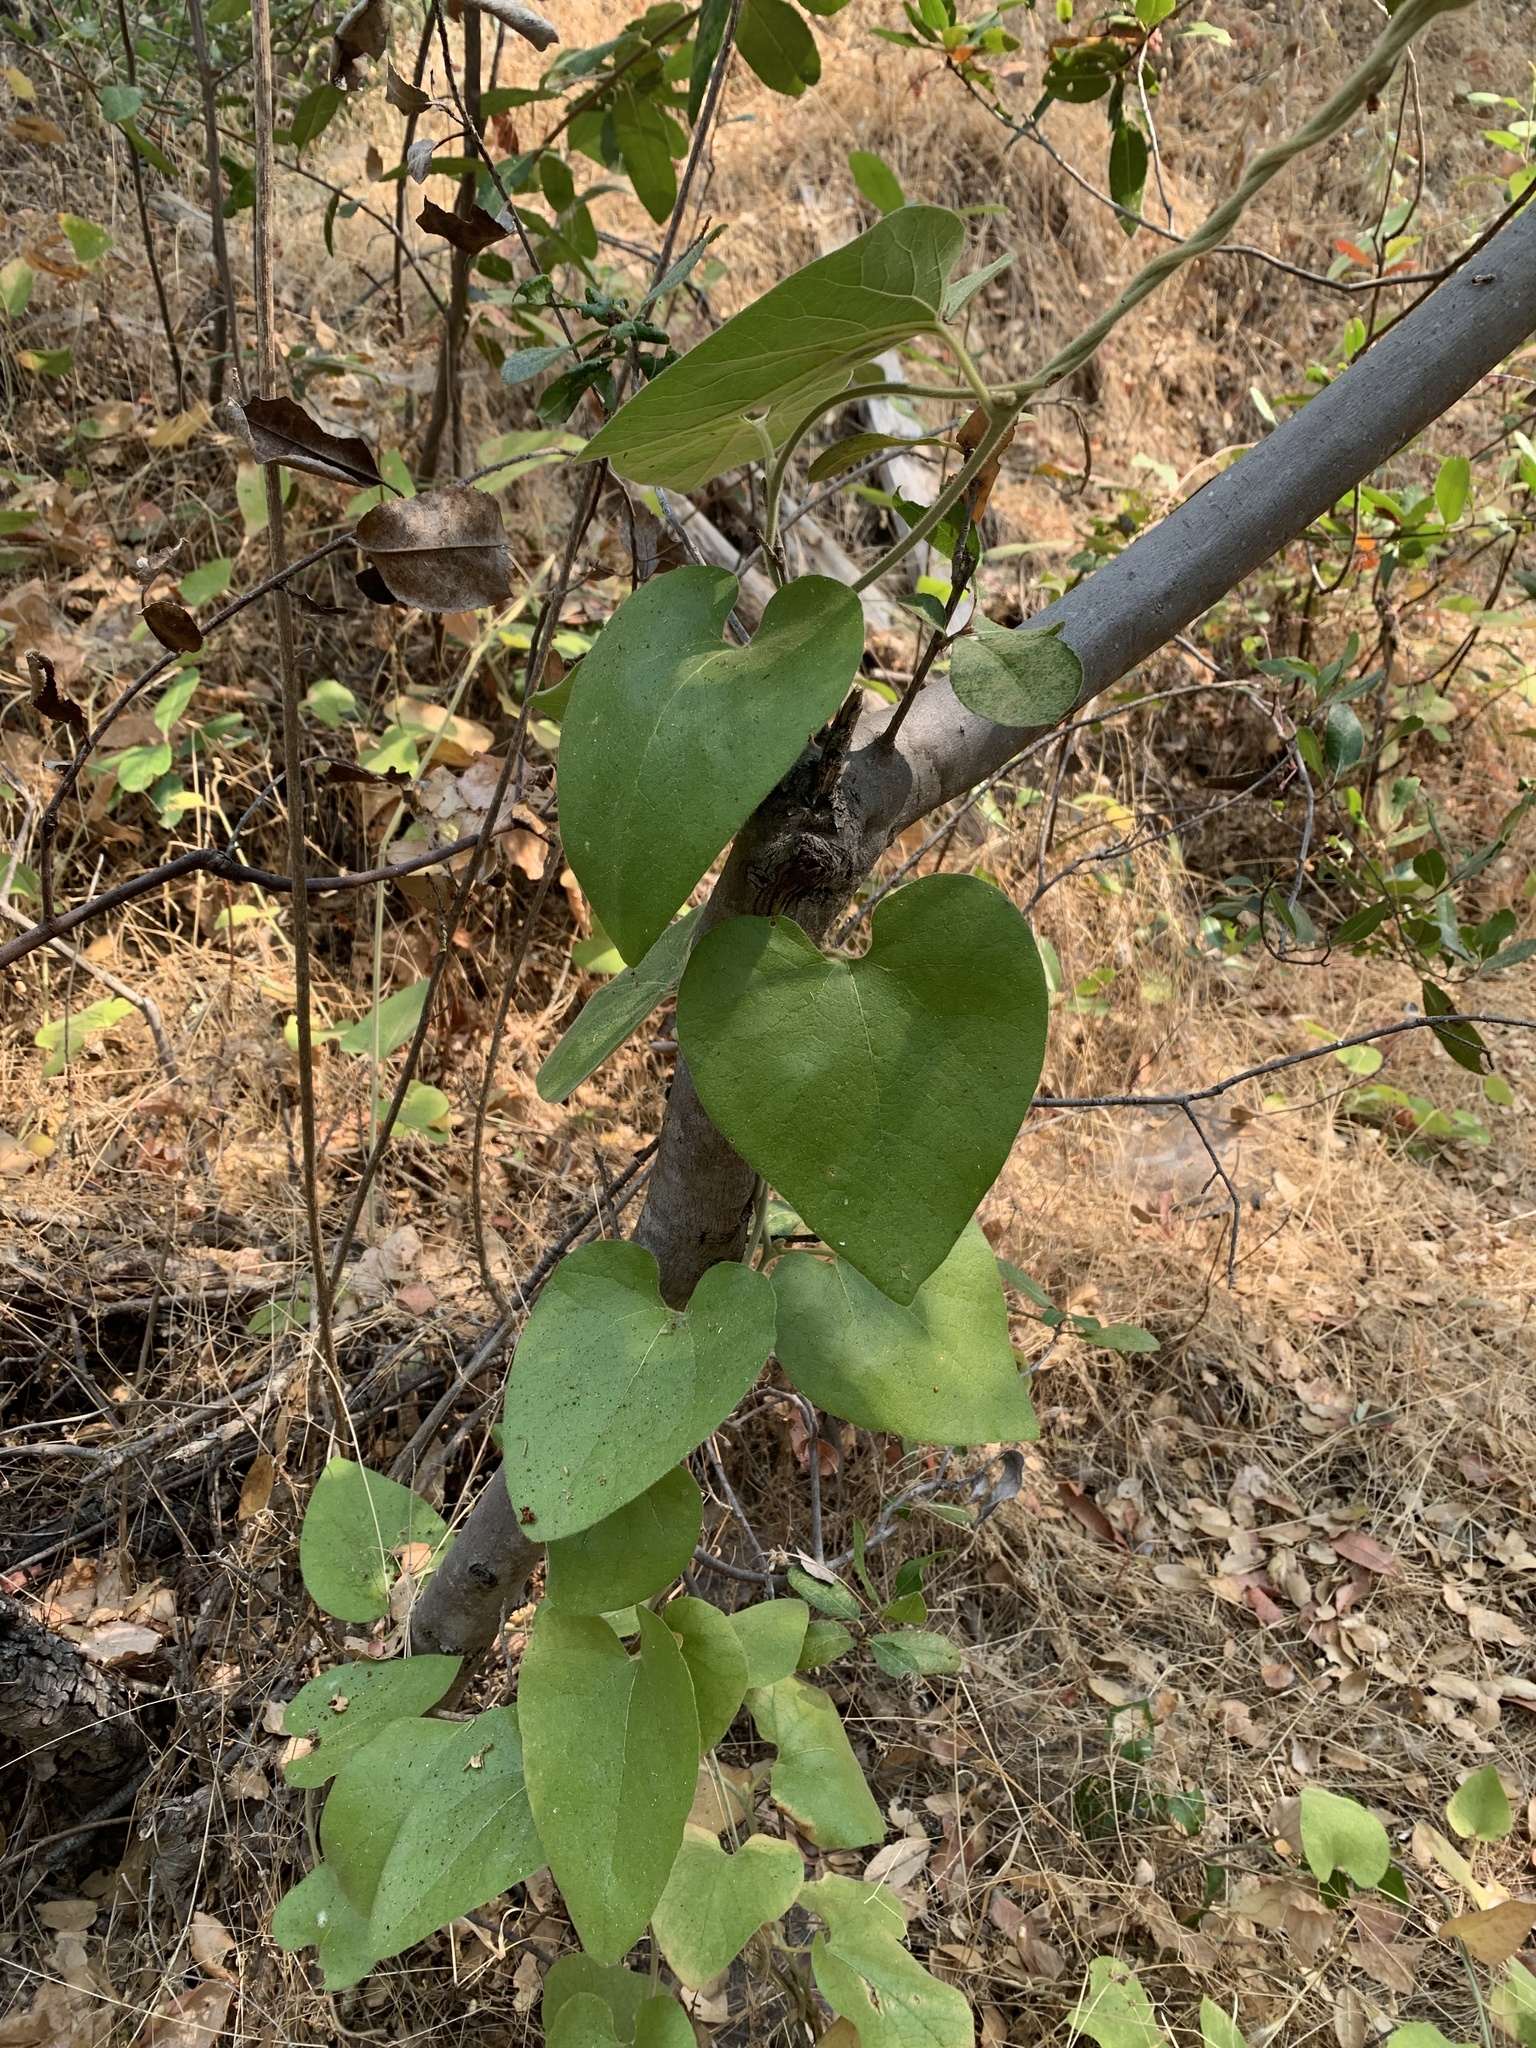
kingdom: Plantae
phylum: Tracheophyta
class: Magnoliopsida
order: Piperales
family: Aristolochiaceae
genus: Isotrema
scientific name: Isotrema californicum
